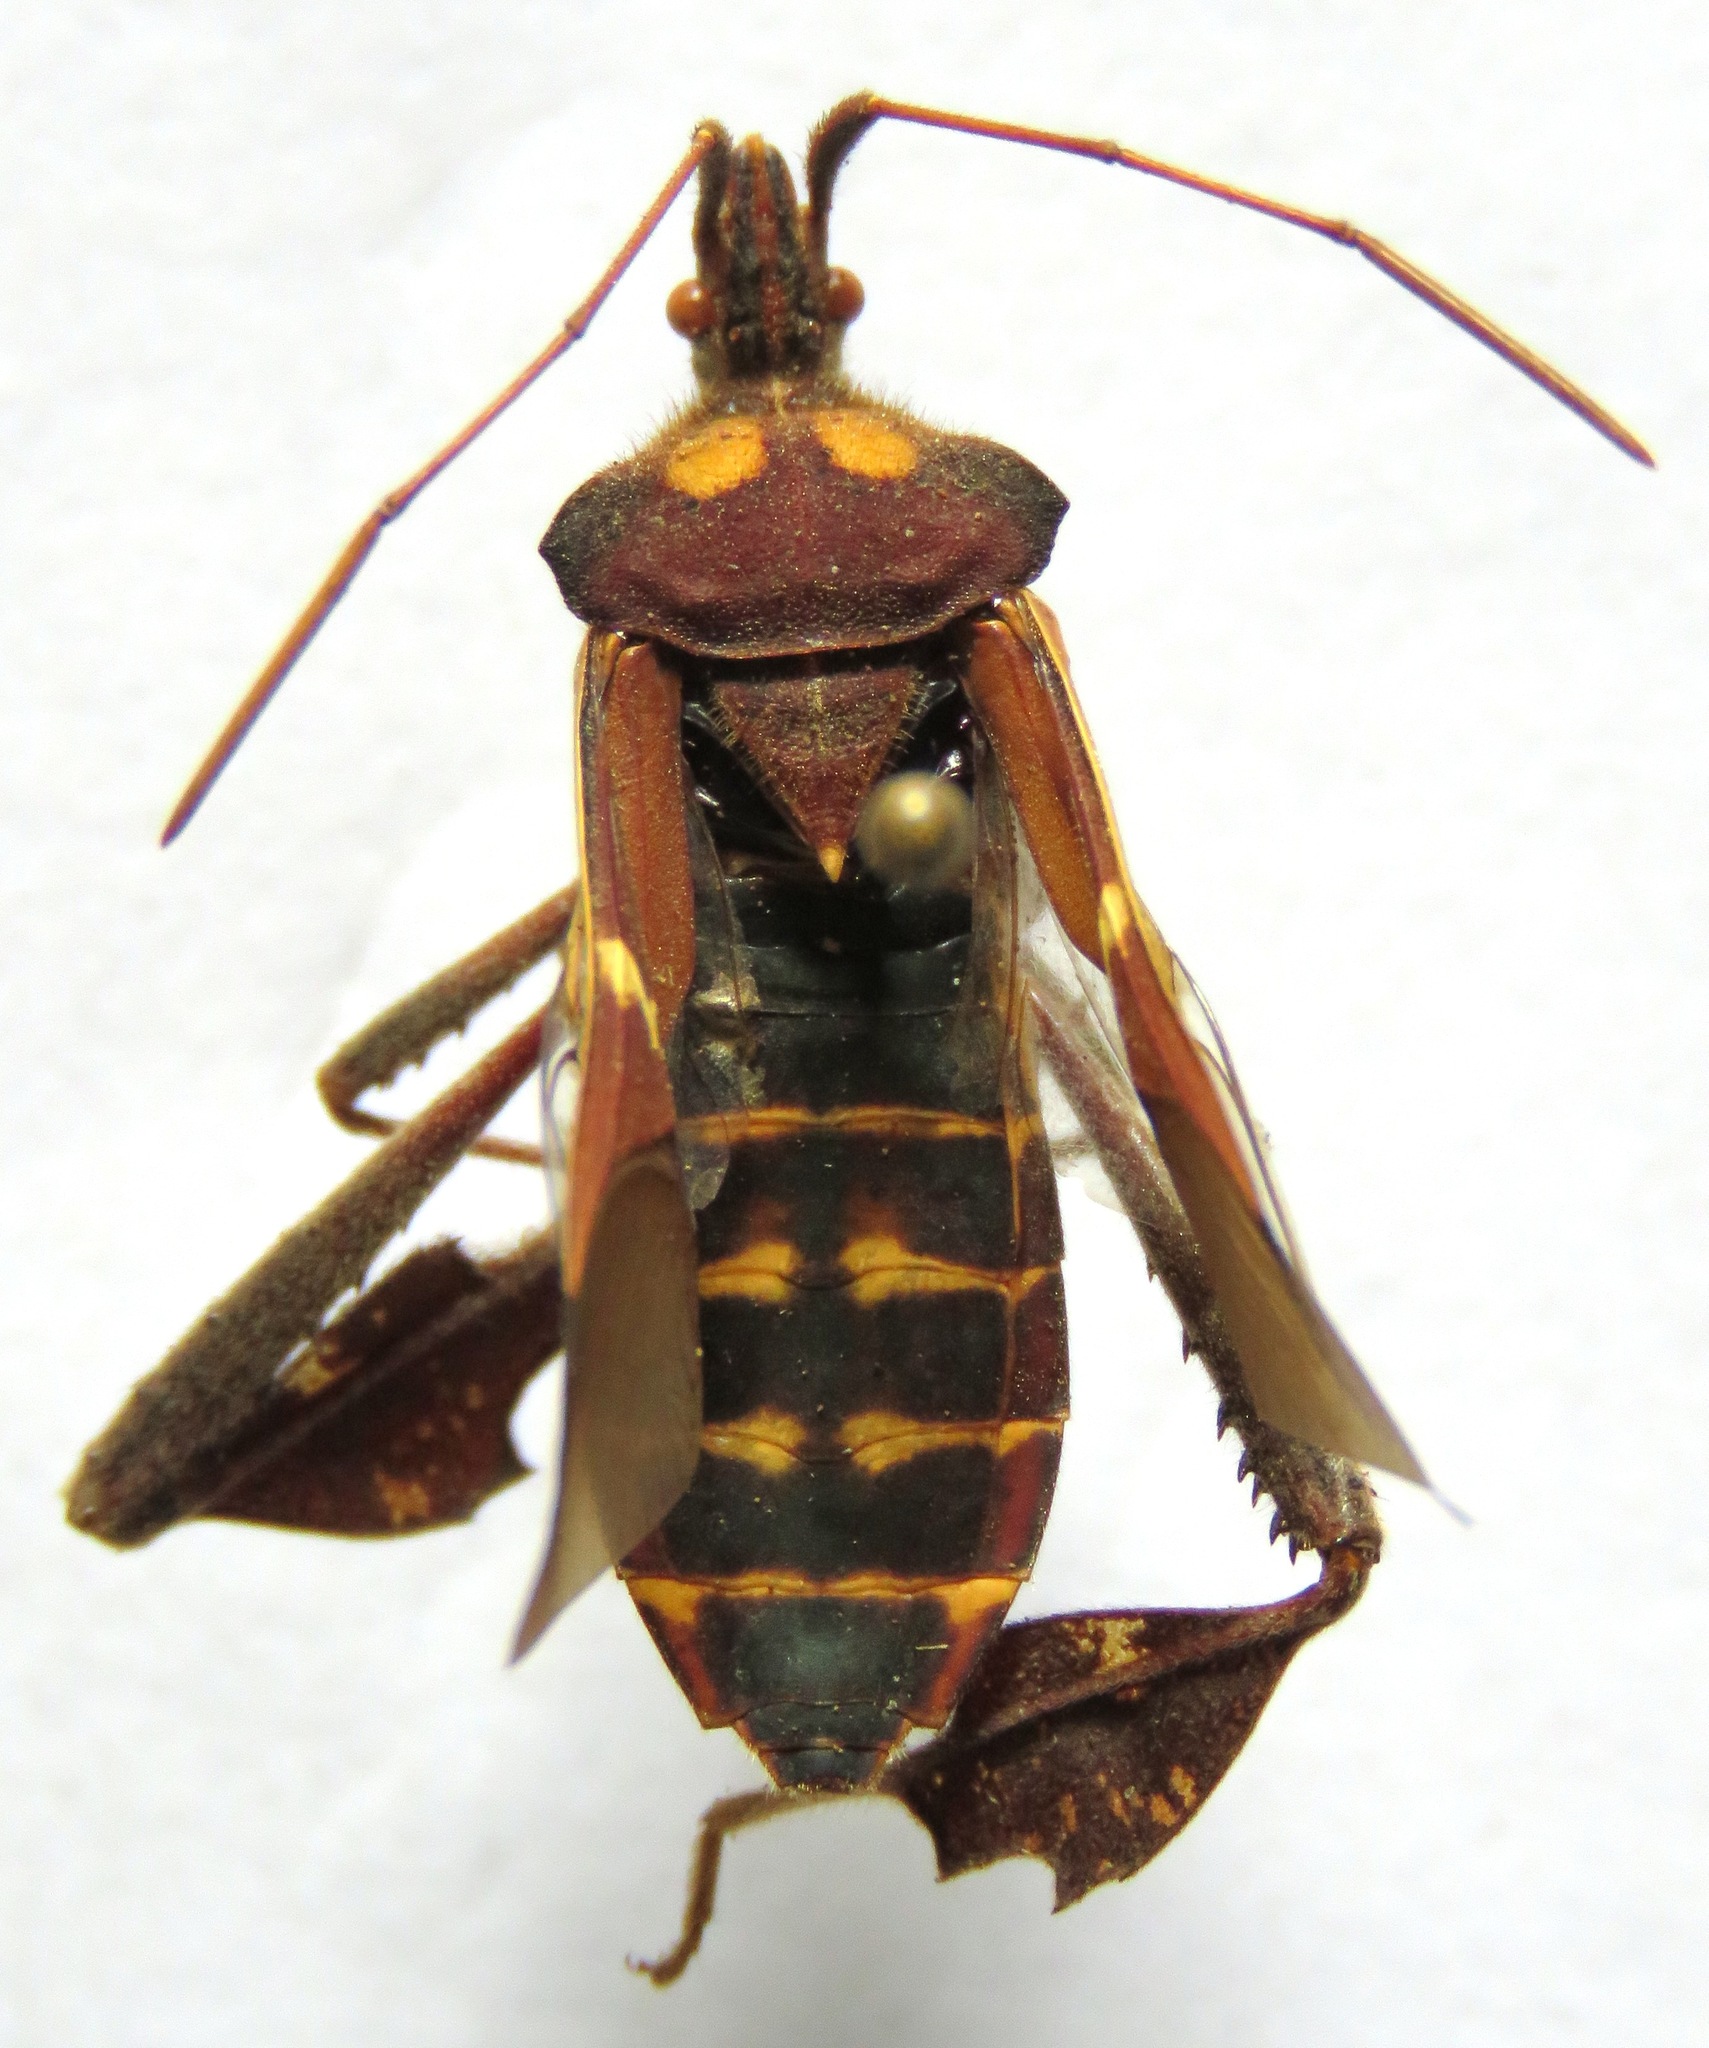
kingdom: Animalia
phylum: Arthropoda
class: Insecta
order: Hemiptera
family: Coreidae
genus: Leptoglossus
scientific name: Leptoglossus zonatus
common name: Large-legged bug
